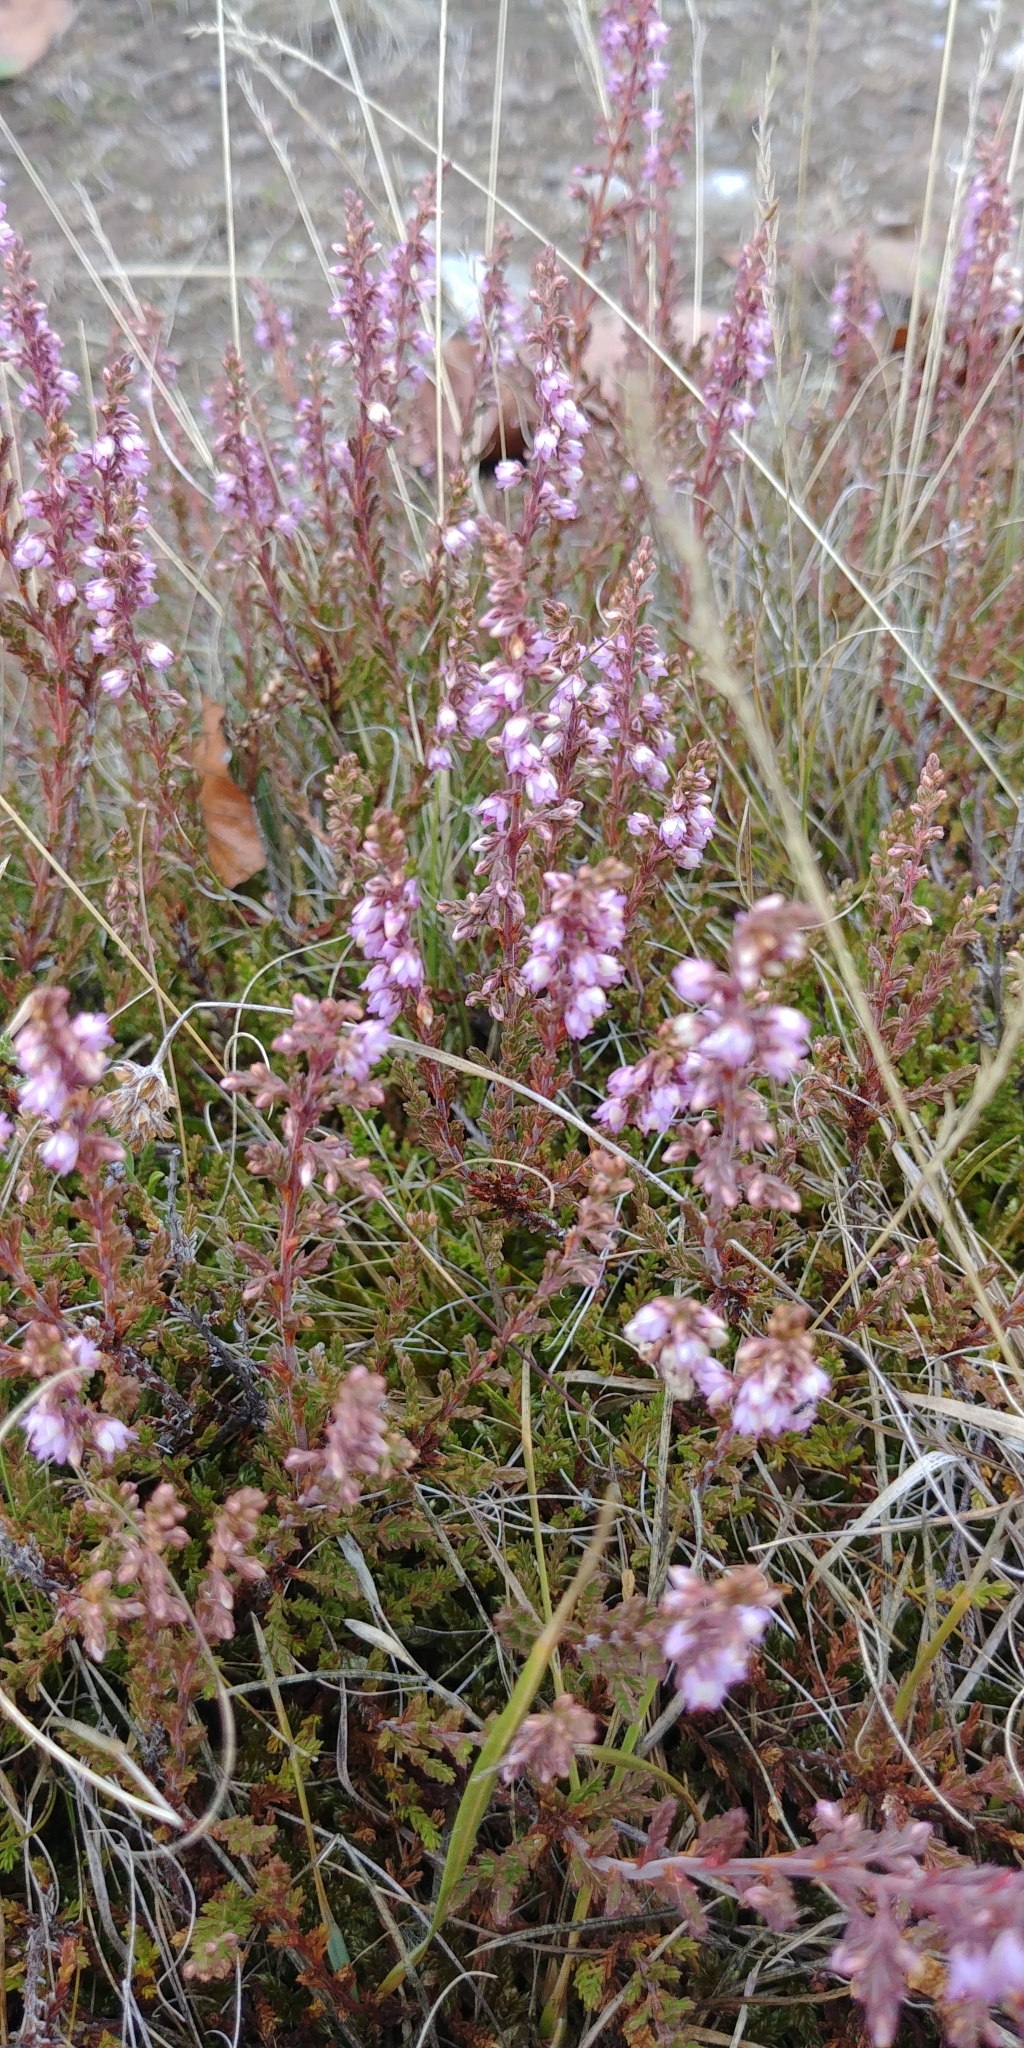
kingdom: Plantae
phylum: Tracheophyta
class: Magnoliopsida
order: Ericales
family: Ericaceae
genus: Calluna
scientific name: Calluna vulgaris
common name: Heather
